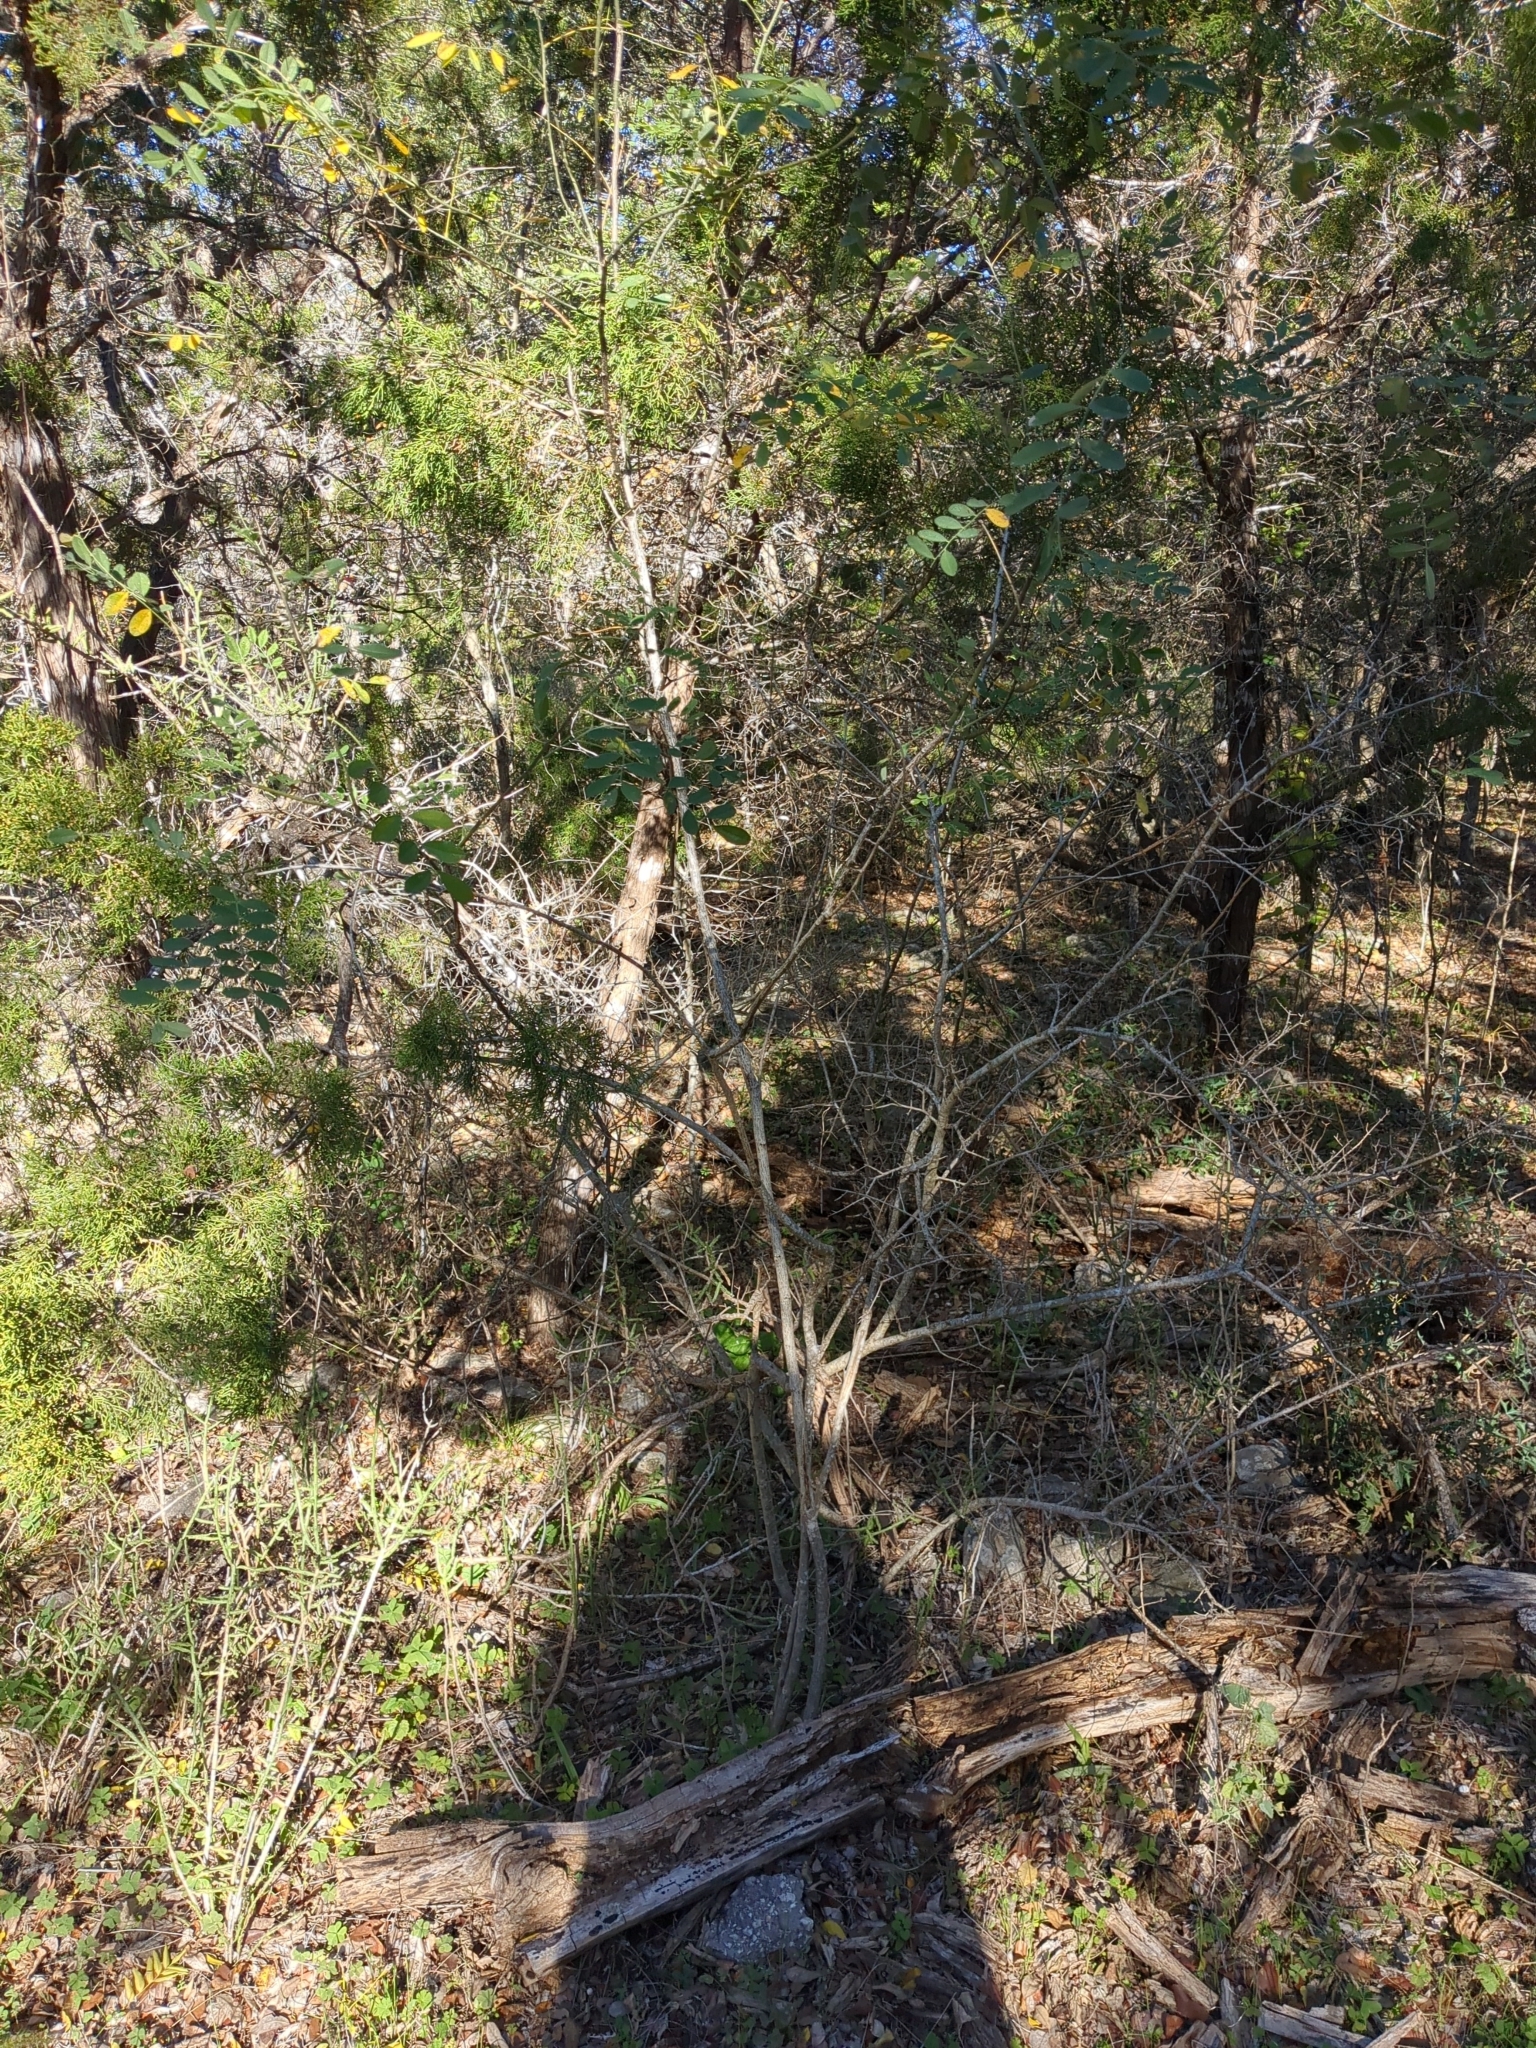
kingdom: Plantae
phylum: Tracheophyta
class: Magnoliopsida
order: Fabales
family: Fabaceae
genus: Styphnolobium
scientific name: Styphnolobium affine
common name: Texas sophora
